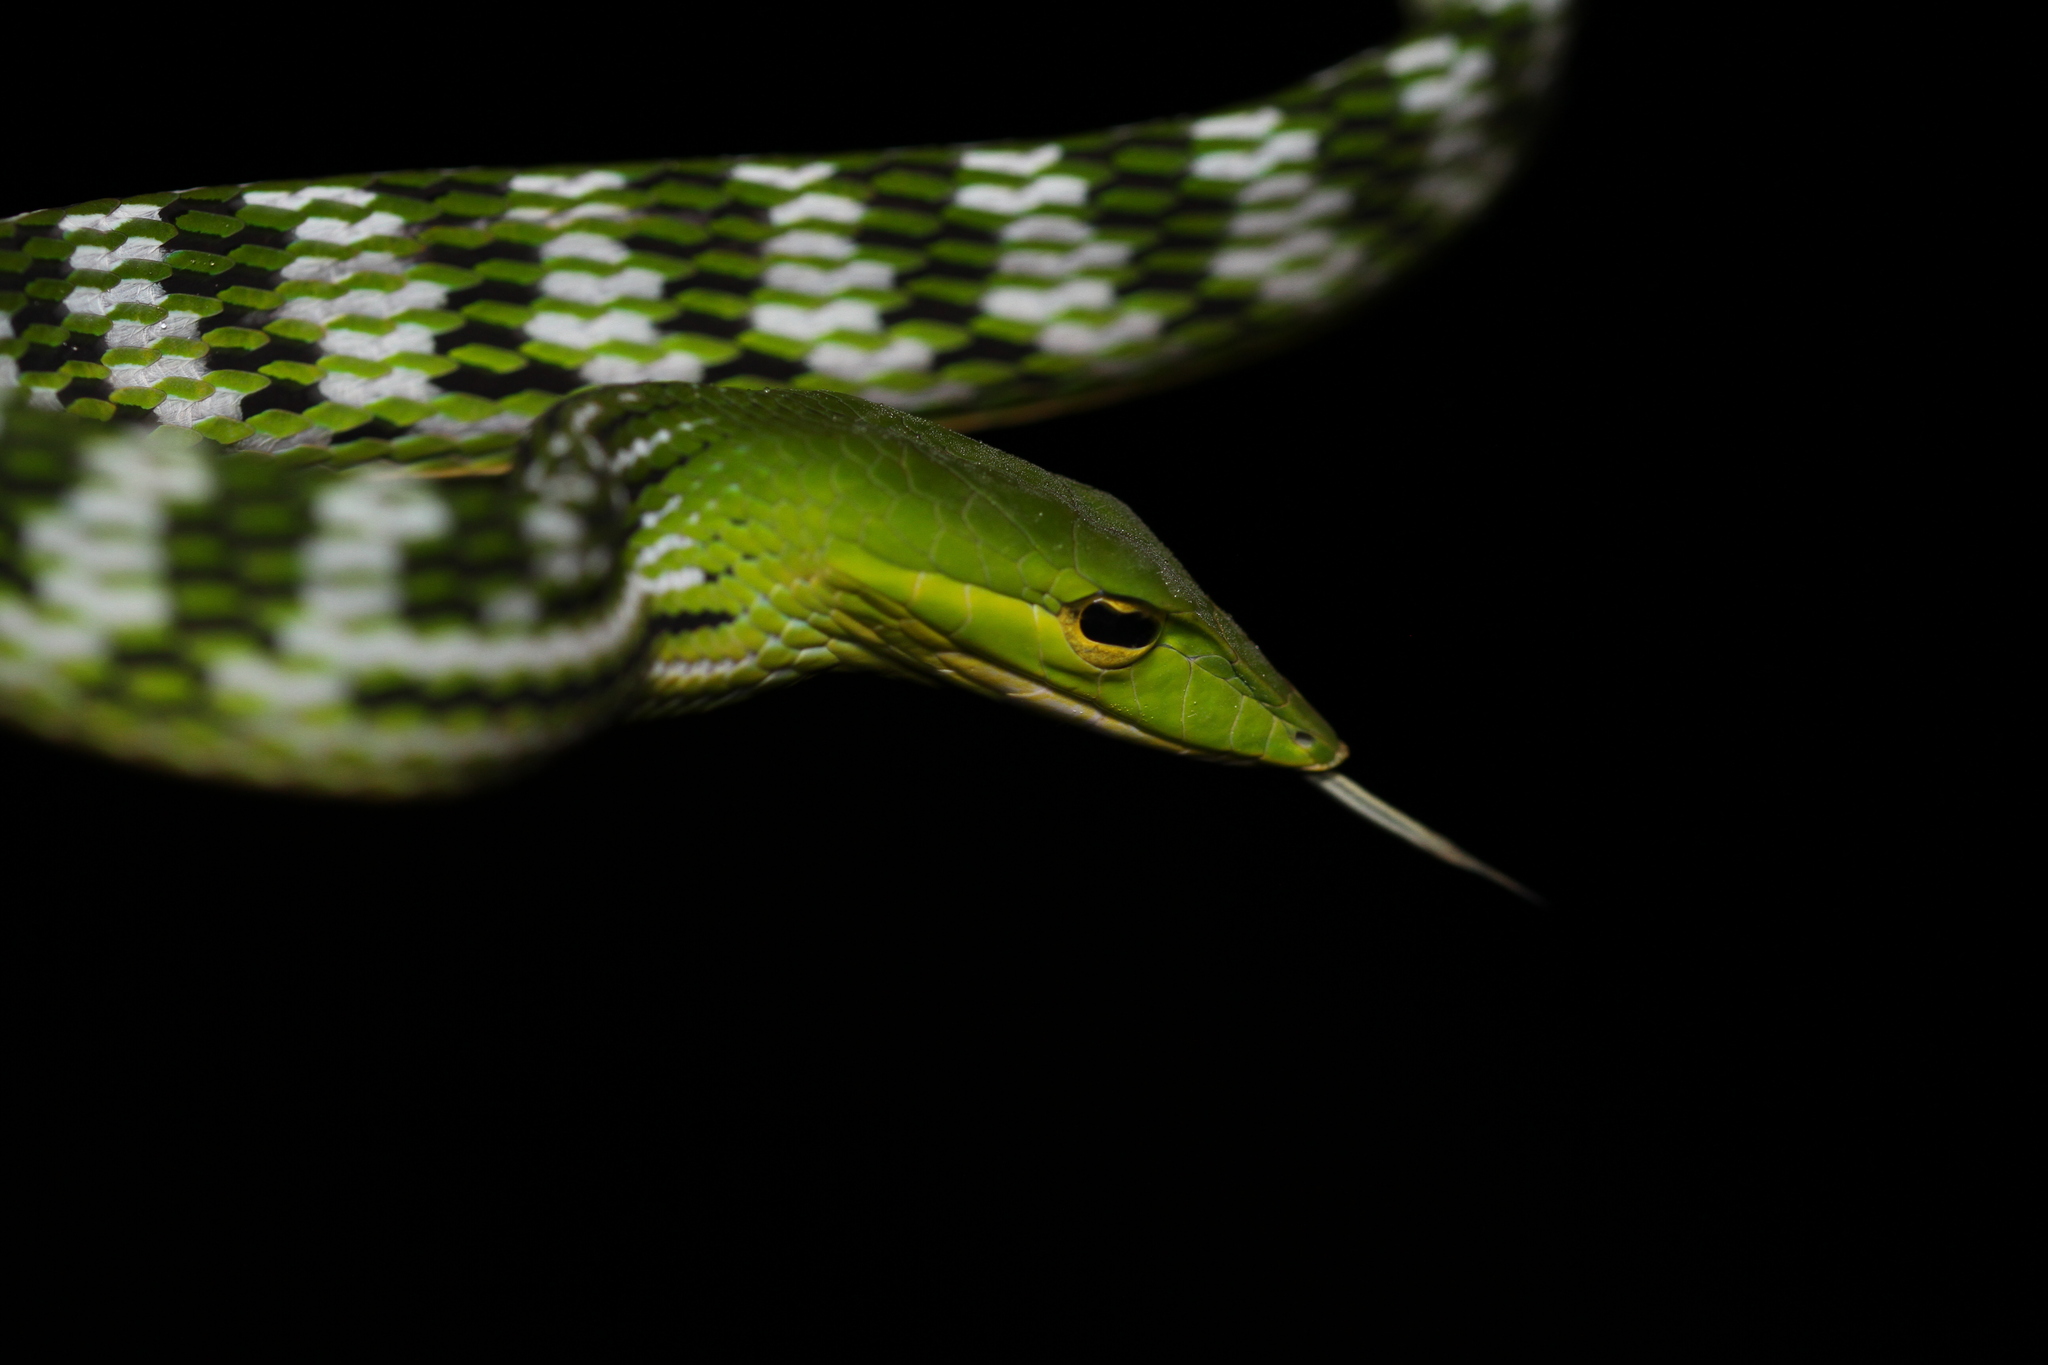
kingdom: Animalia
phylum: Chordata
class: Squamata
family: Colubridae
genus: Ahaetulla
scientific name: Ahaetulla prasina
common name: Oriental whip snake
